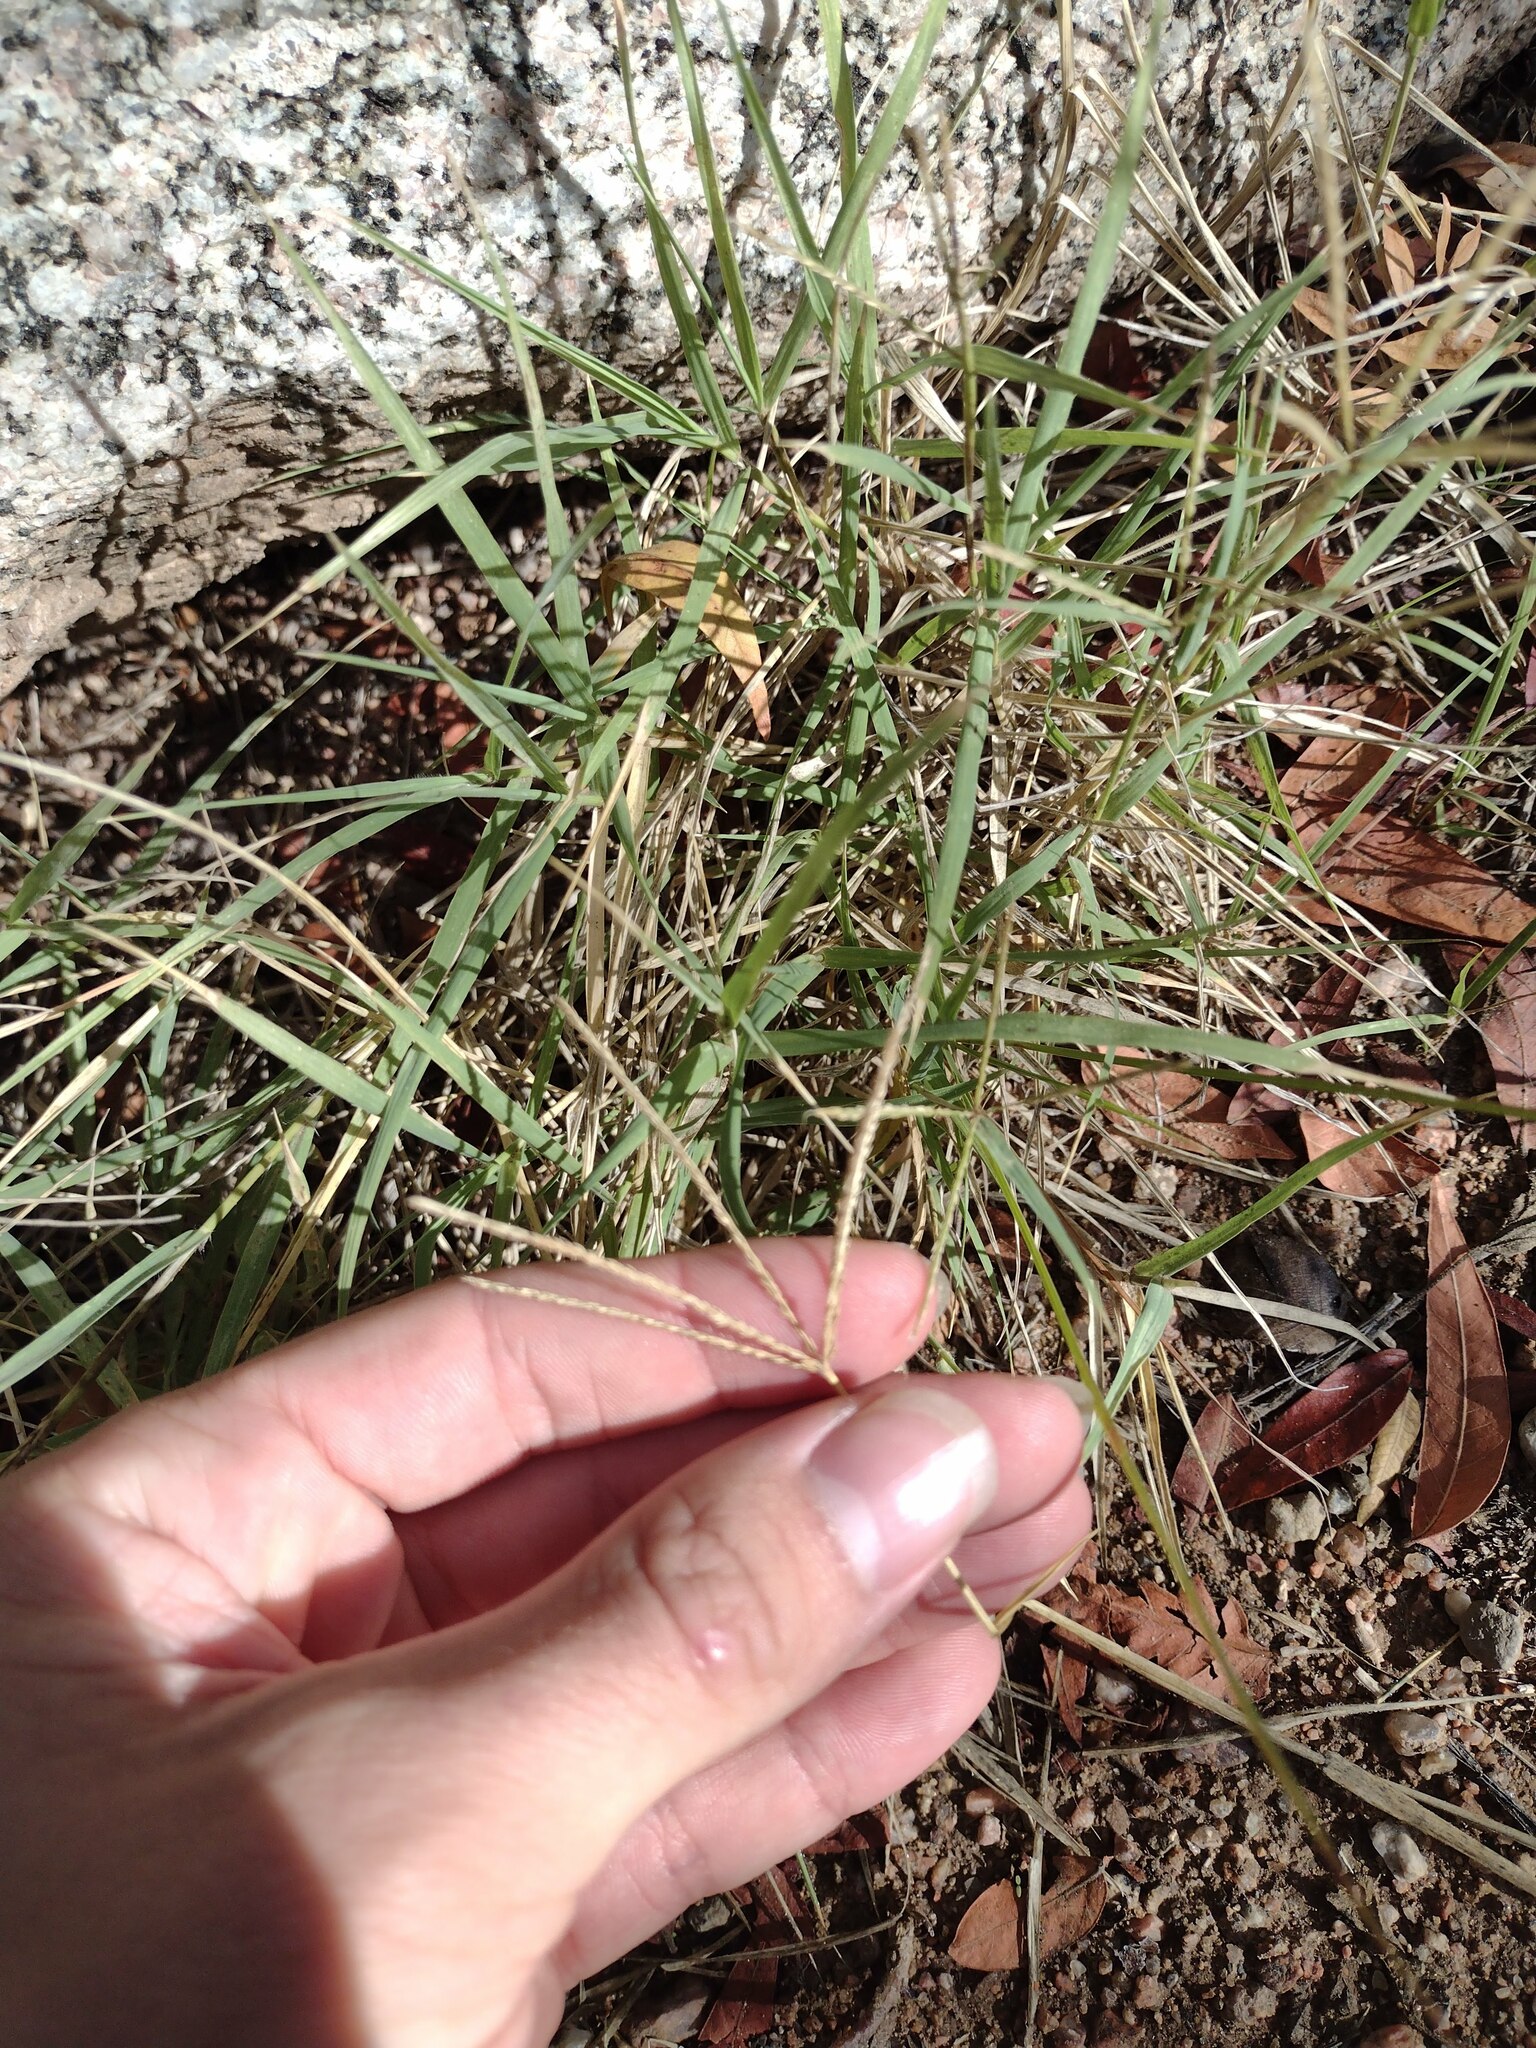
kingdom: Plantae
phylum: Tracheophyta
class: Liliopsida
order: Poales
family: Poaceae
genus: Cynodon
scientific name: Cynodon dactylon
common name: Bermuda grass
